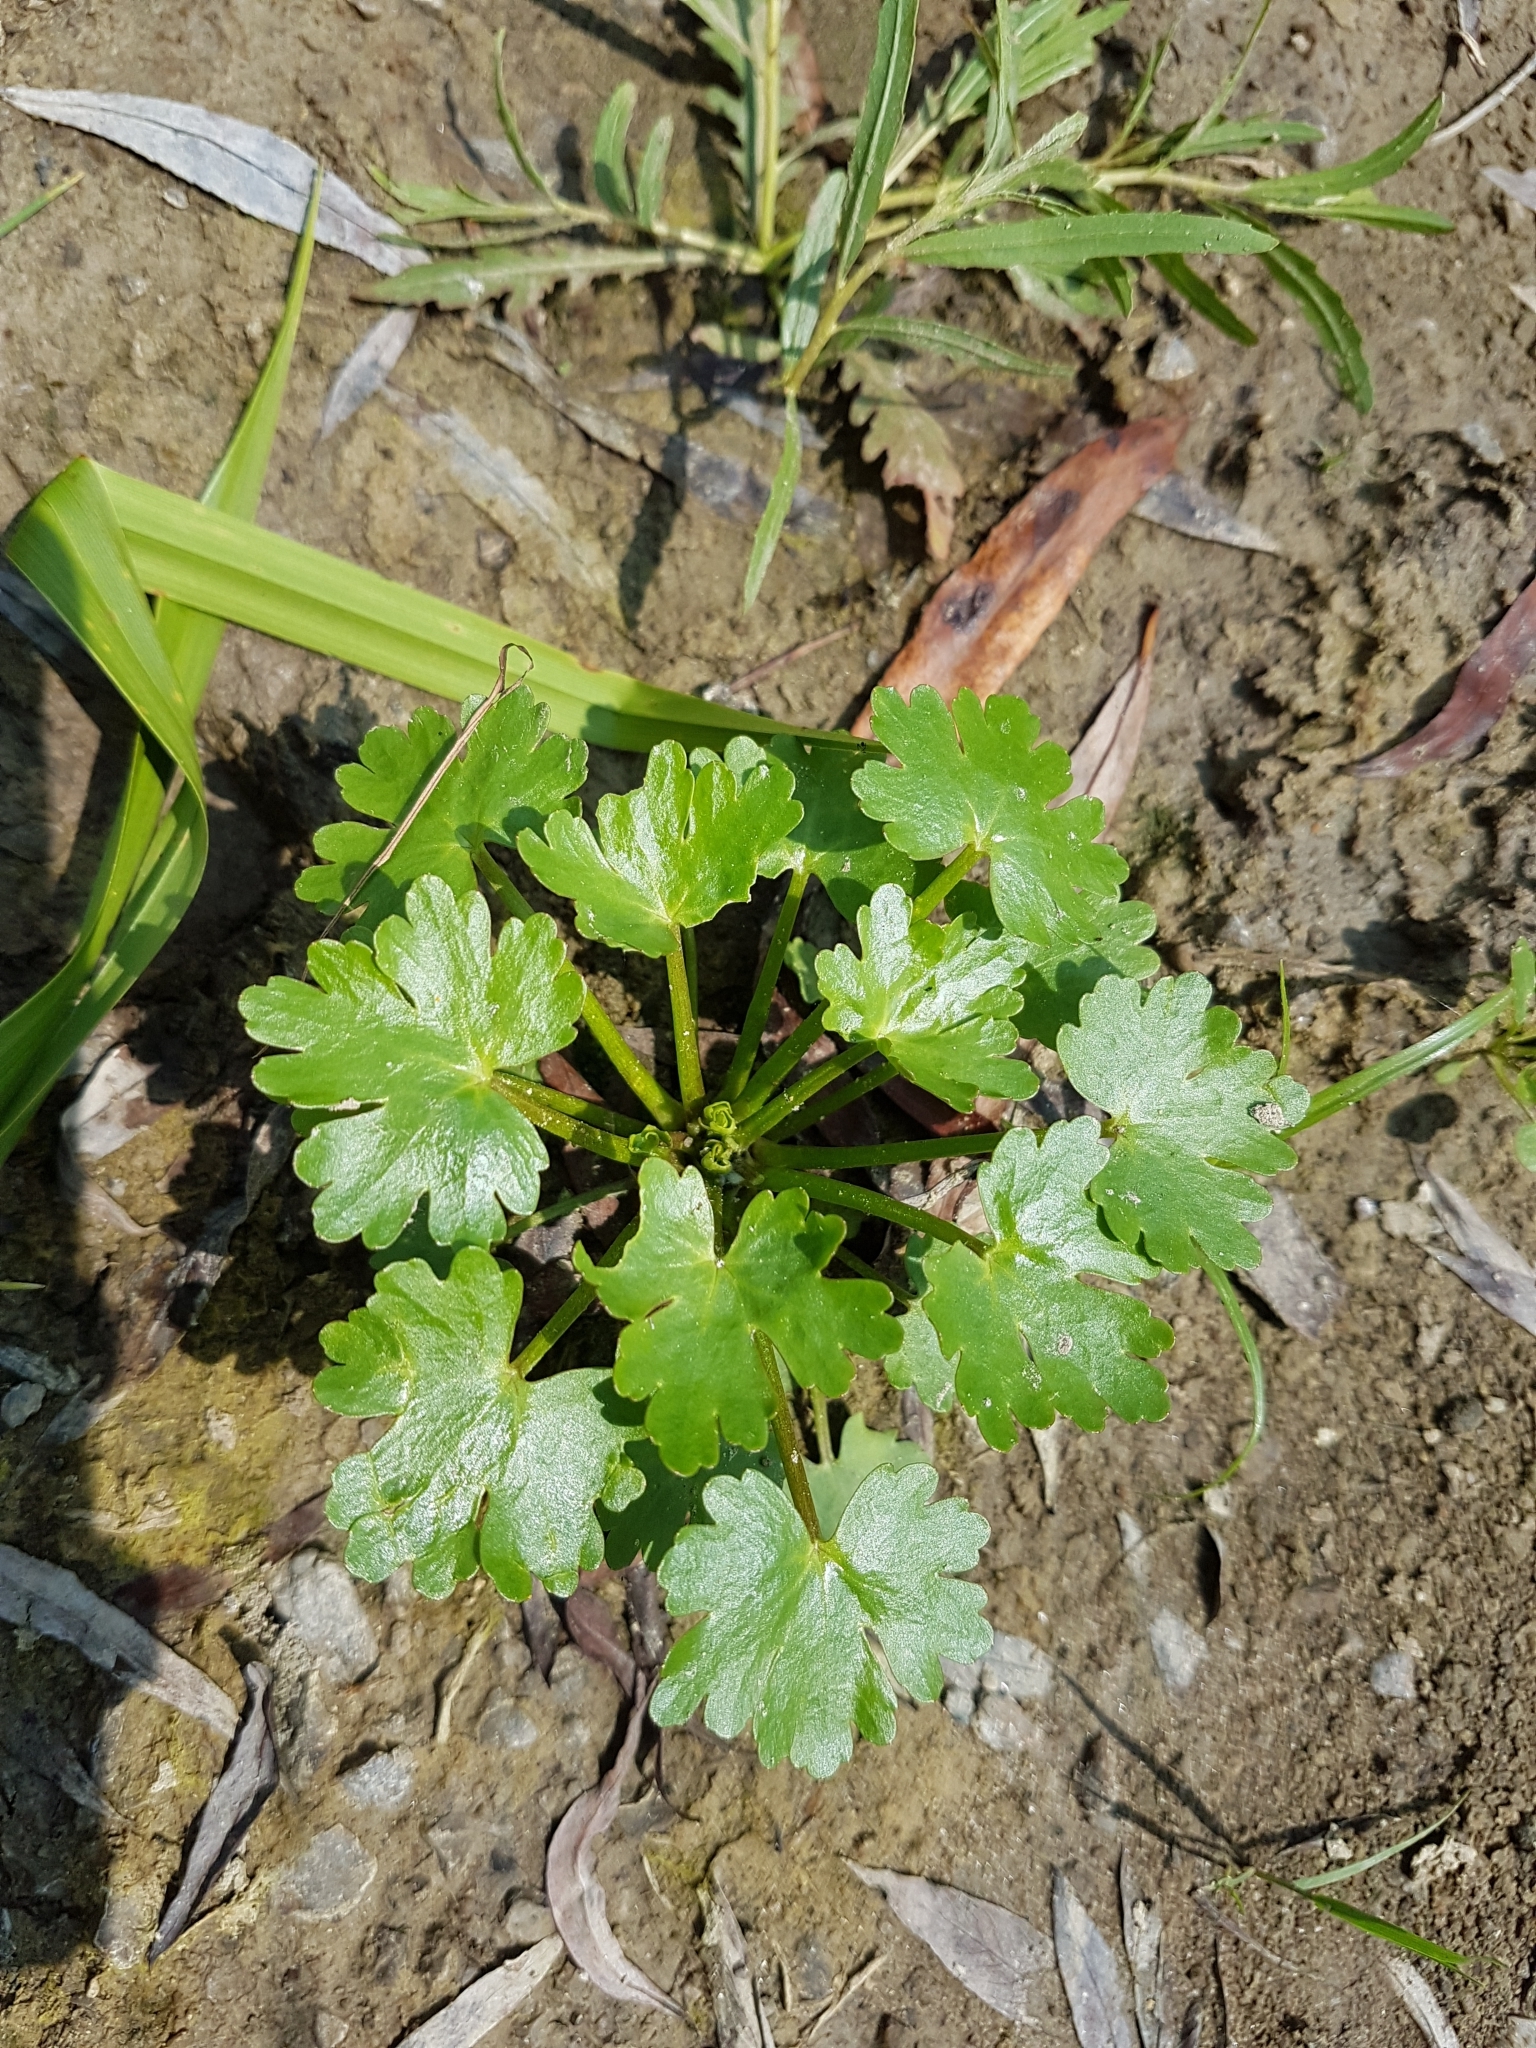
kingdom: Plantae
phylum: Tracheophyta
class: Magnoliopsida
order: Ranunculales
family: Ranunculaceae
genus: Ranunculus
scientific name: Ranunculus sceleratus
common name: Celery-leaved buttercup
